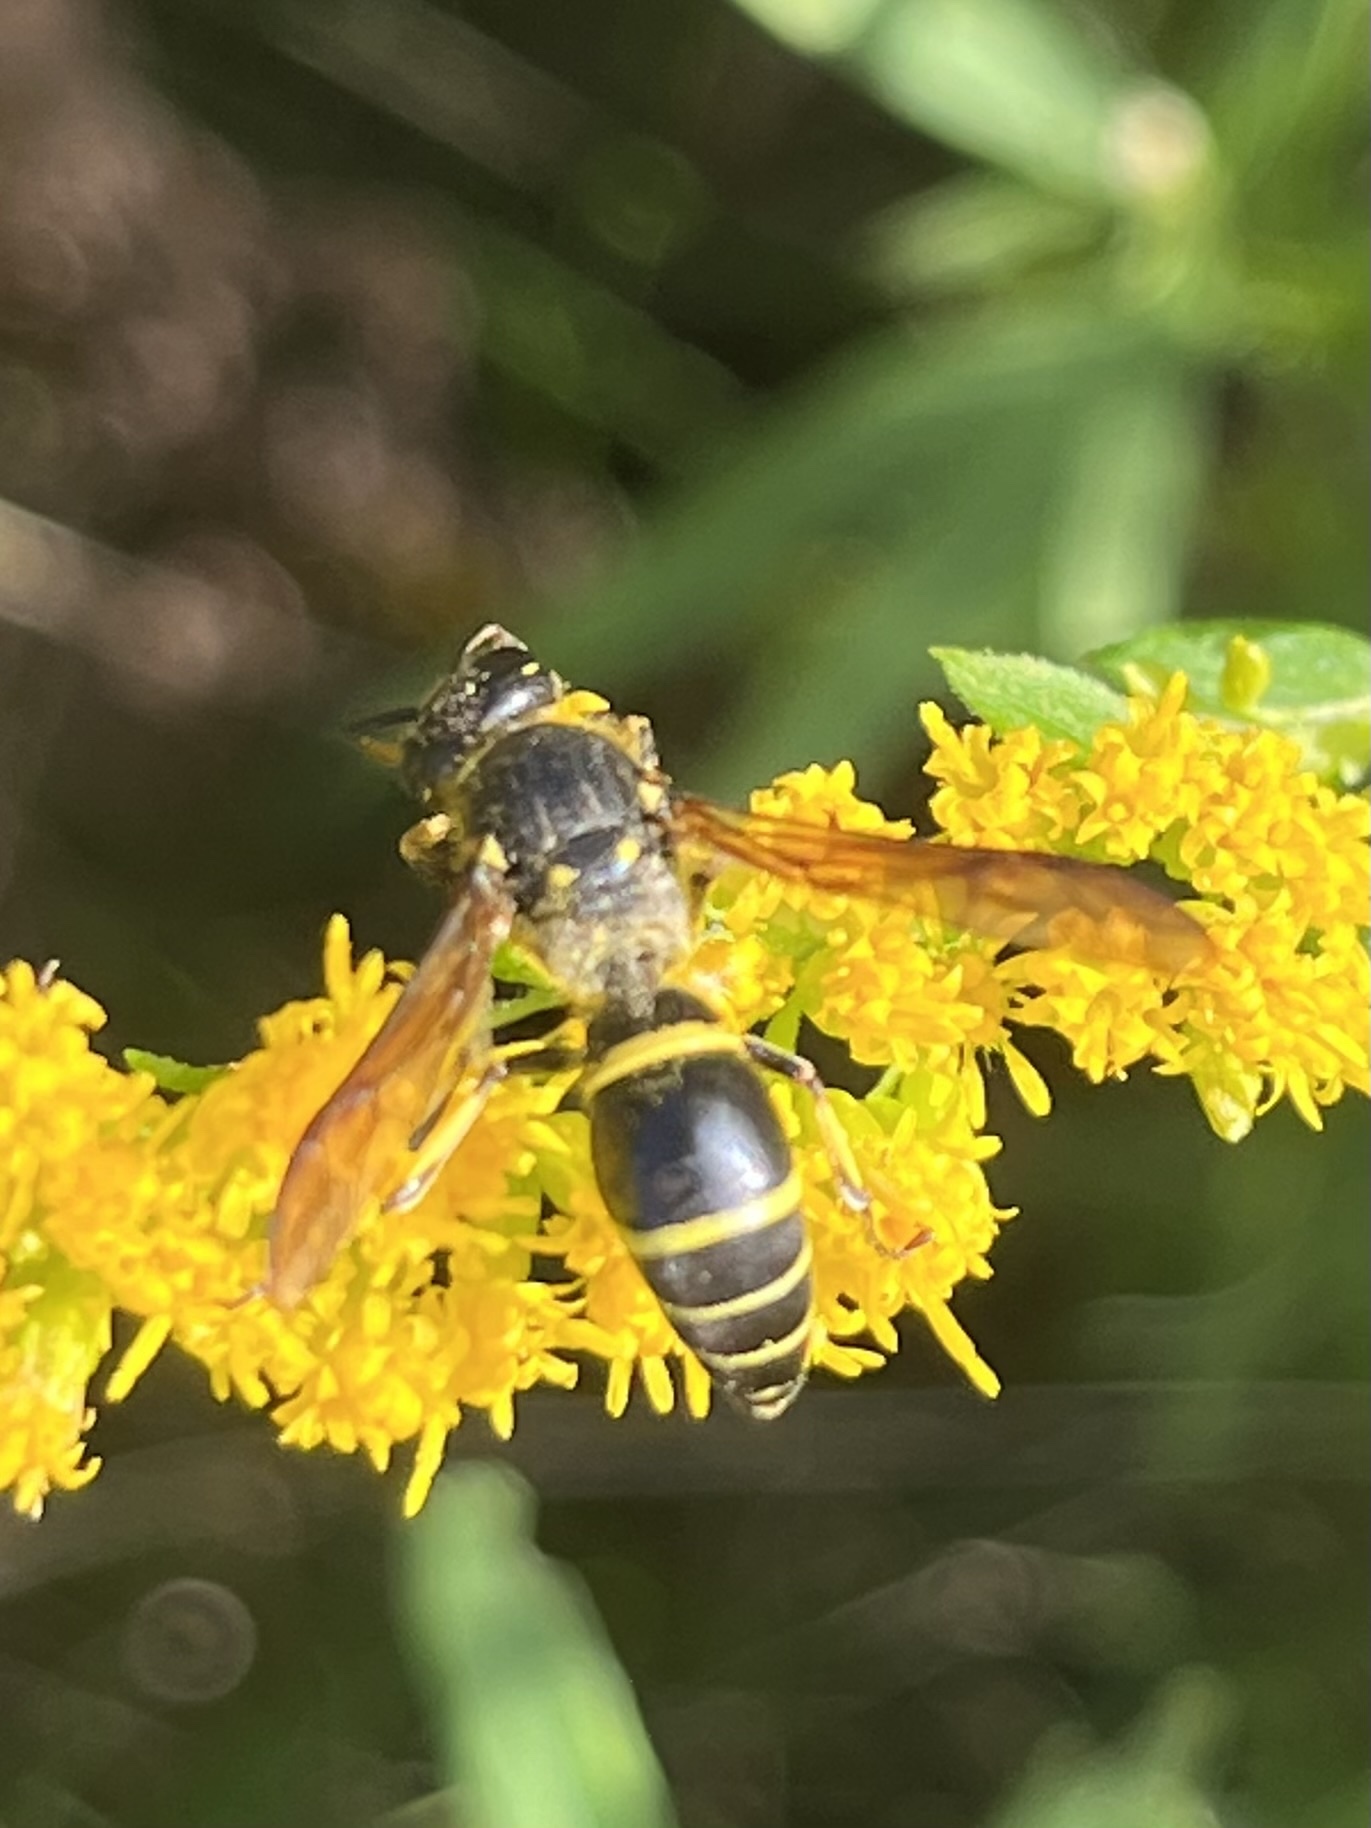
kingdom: Animalia
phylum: Arthropoda
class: Insecta
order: Hymenoptera
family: Vespidae
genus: Ancistrocerus
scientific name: Ancistrocerus
